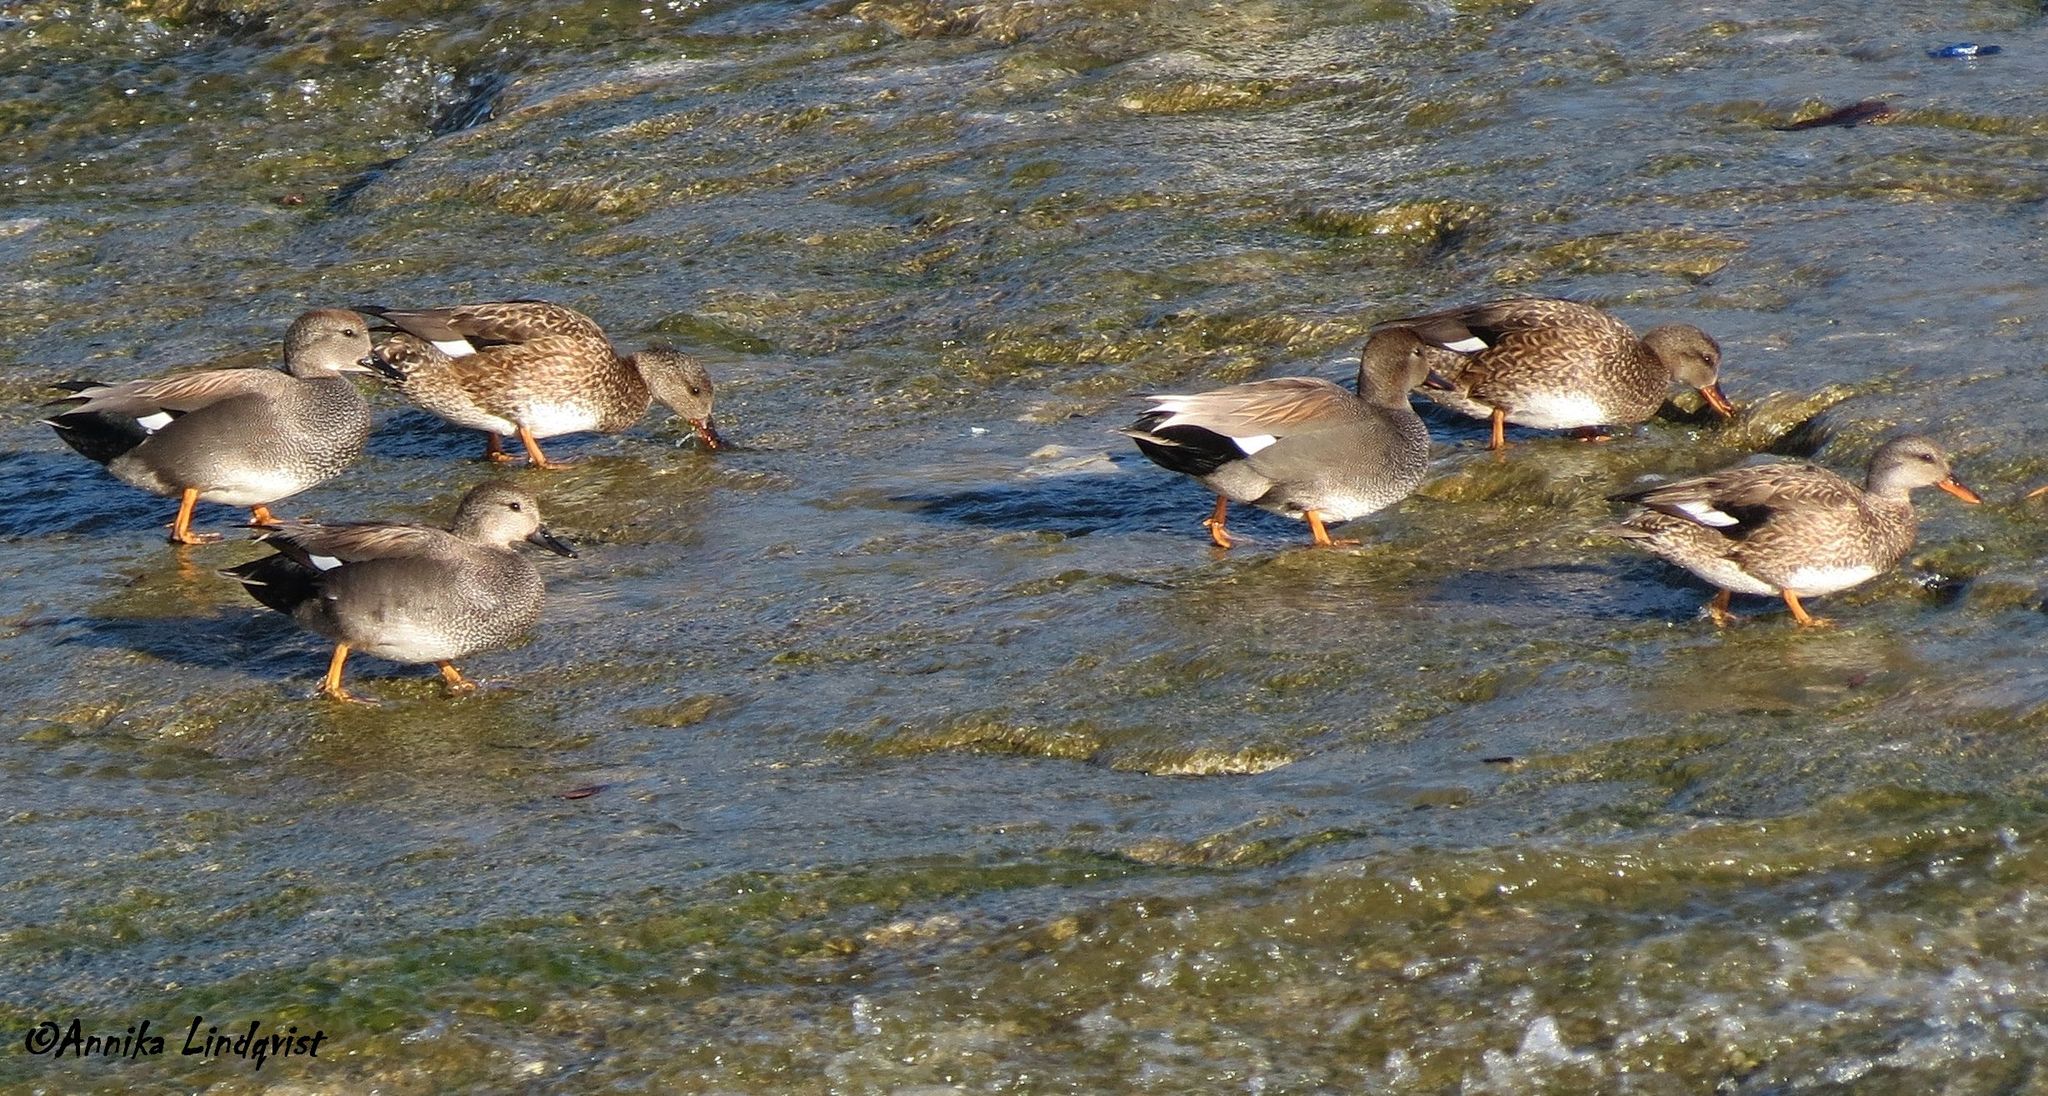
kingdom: Animalia
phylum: Chordata
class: Aves
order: Anseriformes
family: Anatidae
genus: Mareca
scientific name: Mareca strepera
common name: Gadwall
